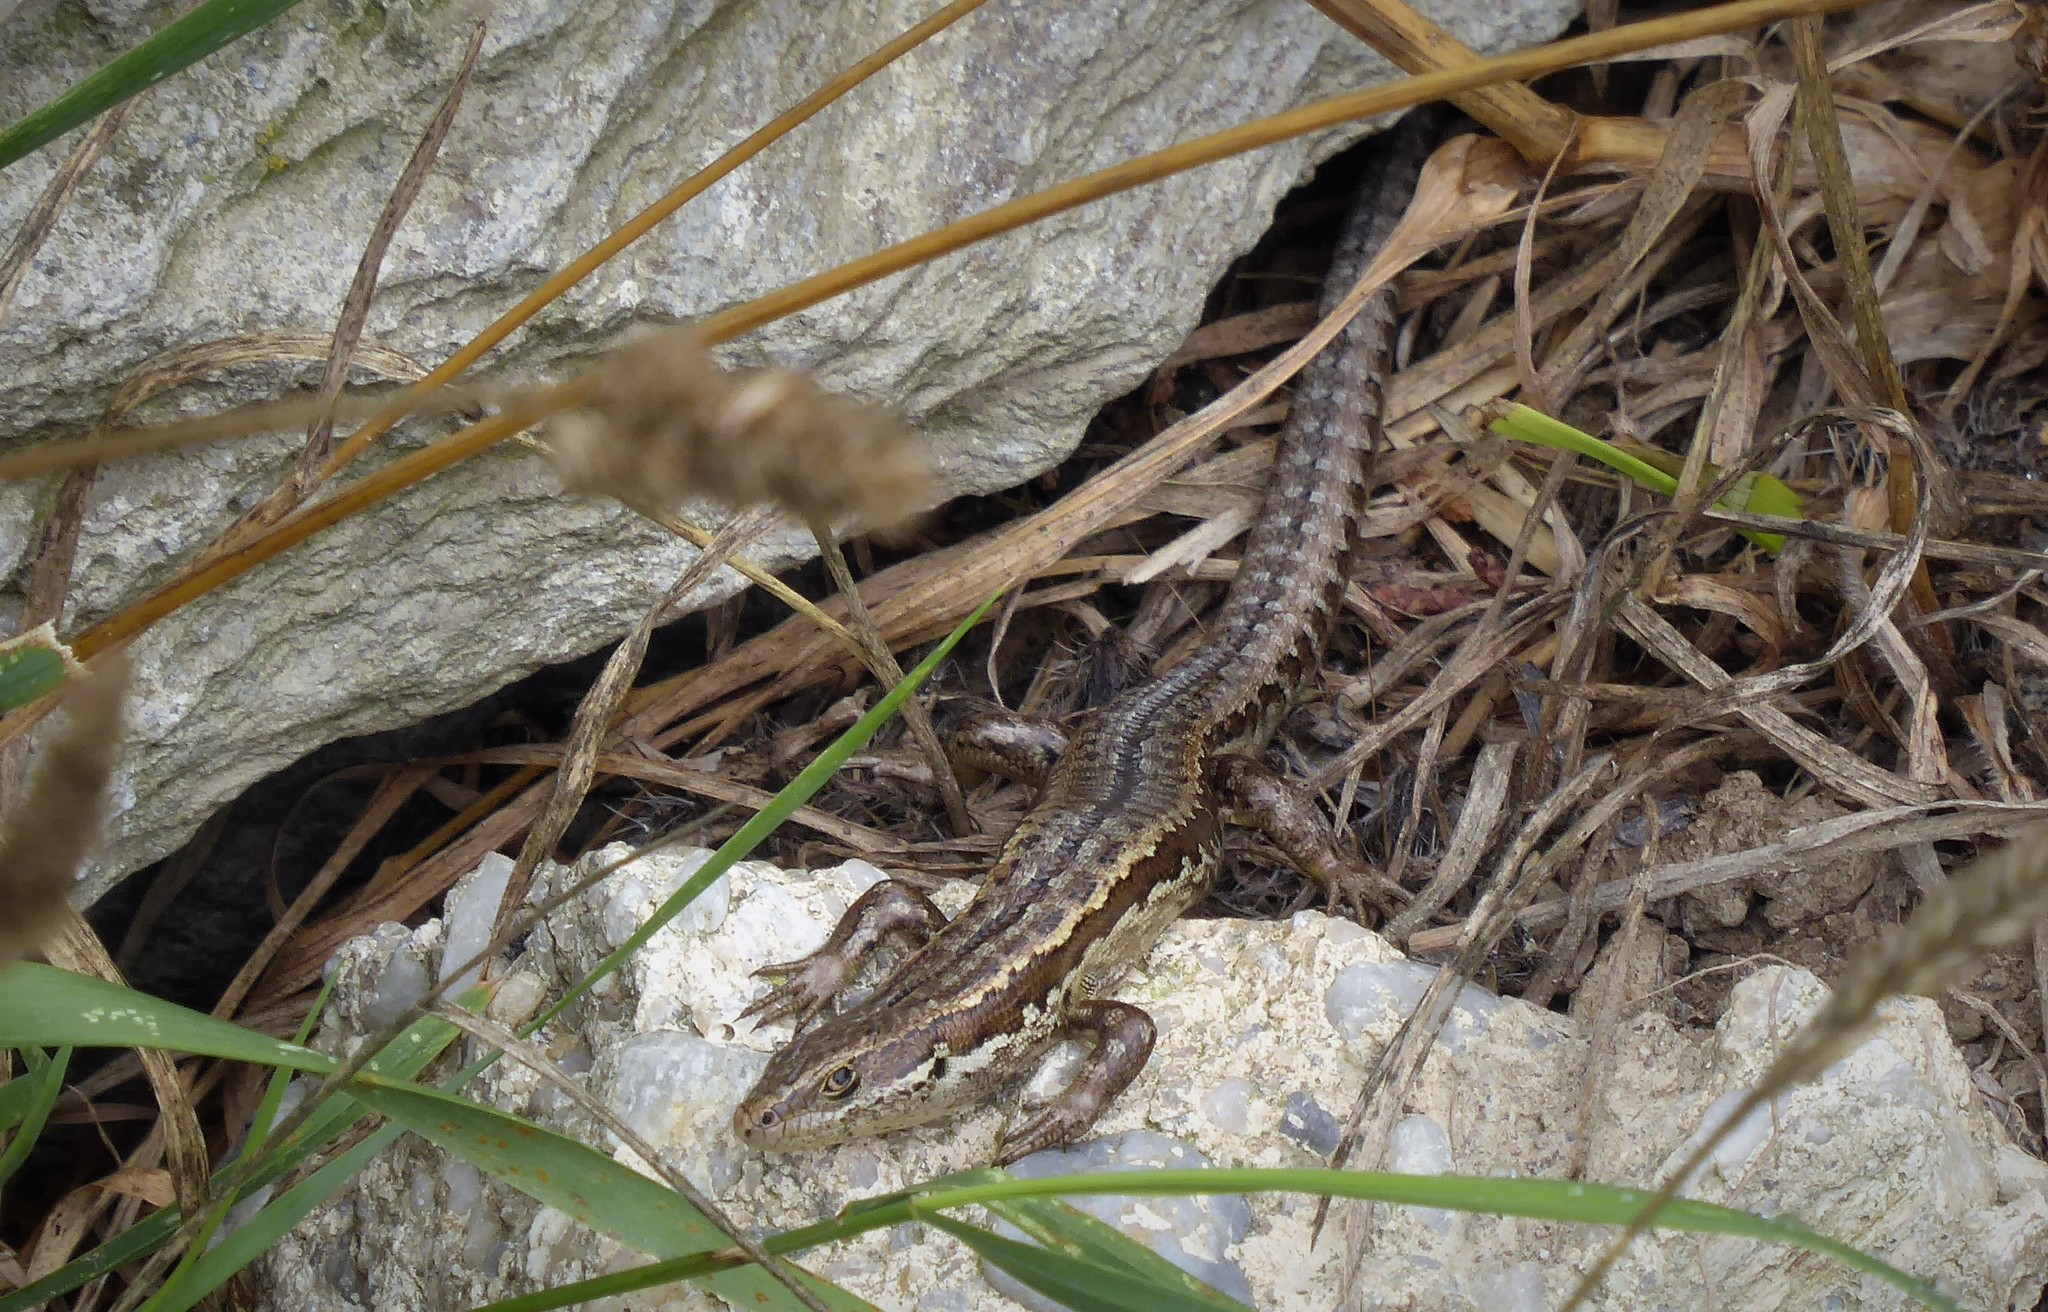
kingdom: Animalia
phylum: Chordata
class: Squamata
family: Scincidae
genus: Oligosoma
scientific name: Oligosoma maccanni
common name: Mccann’s skink
